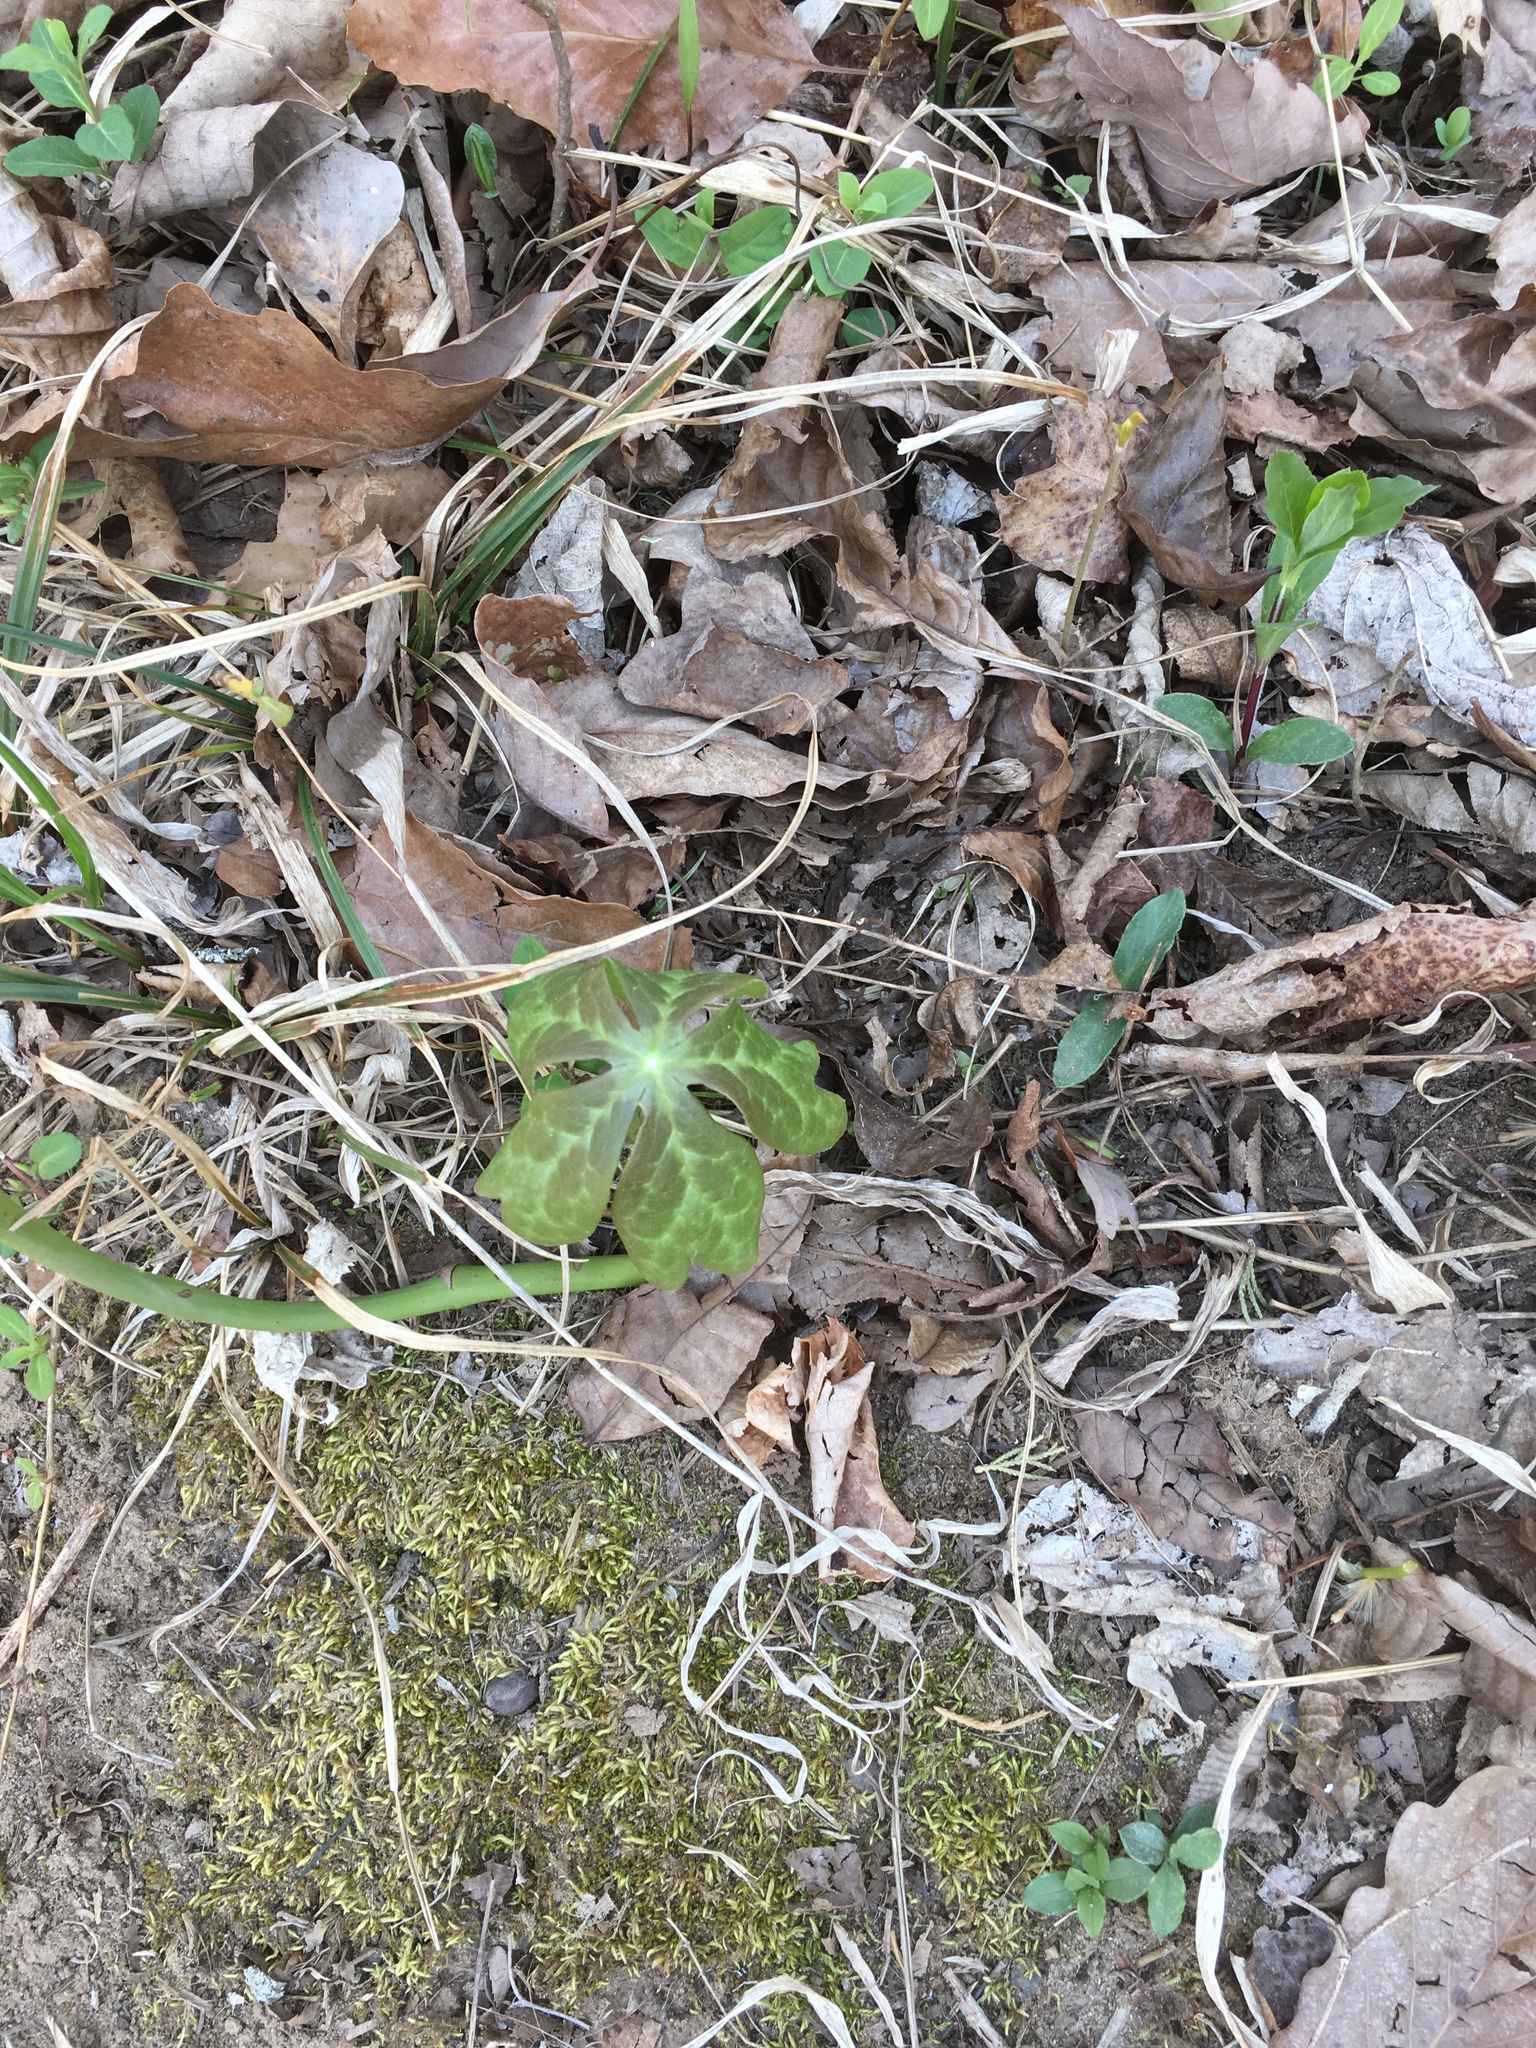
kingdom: Plantae
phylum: Tracheophyta
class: Magnoliopsida
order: Ranunculales
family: Berberidaceae
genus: Podophyllum
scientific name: Podophyllum peltatum
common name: Wild mandrake
